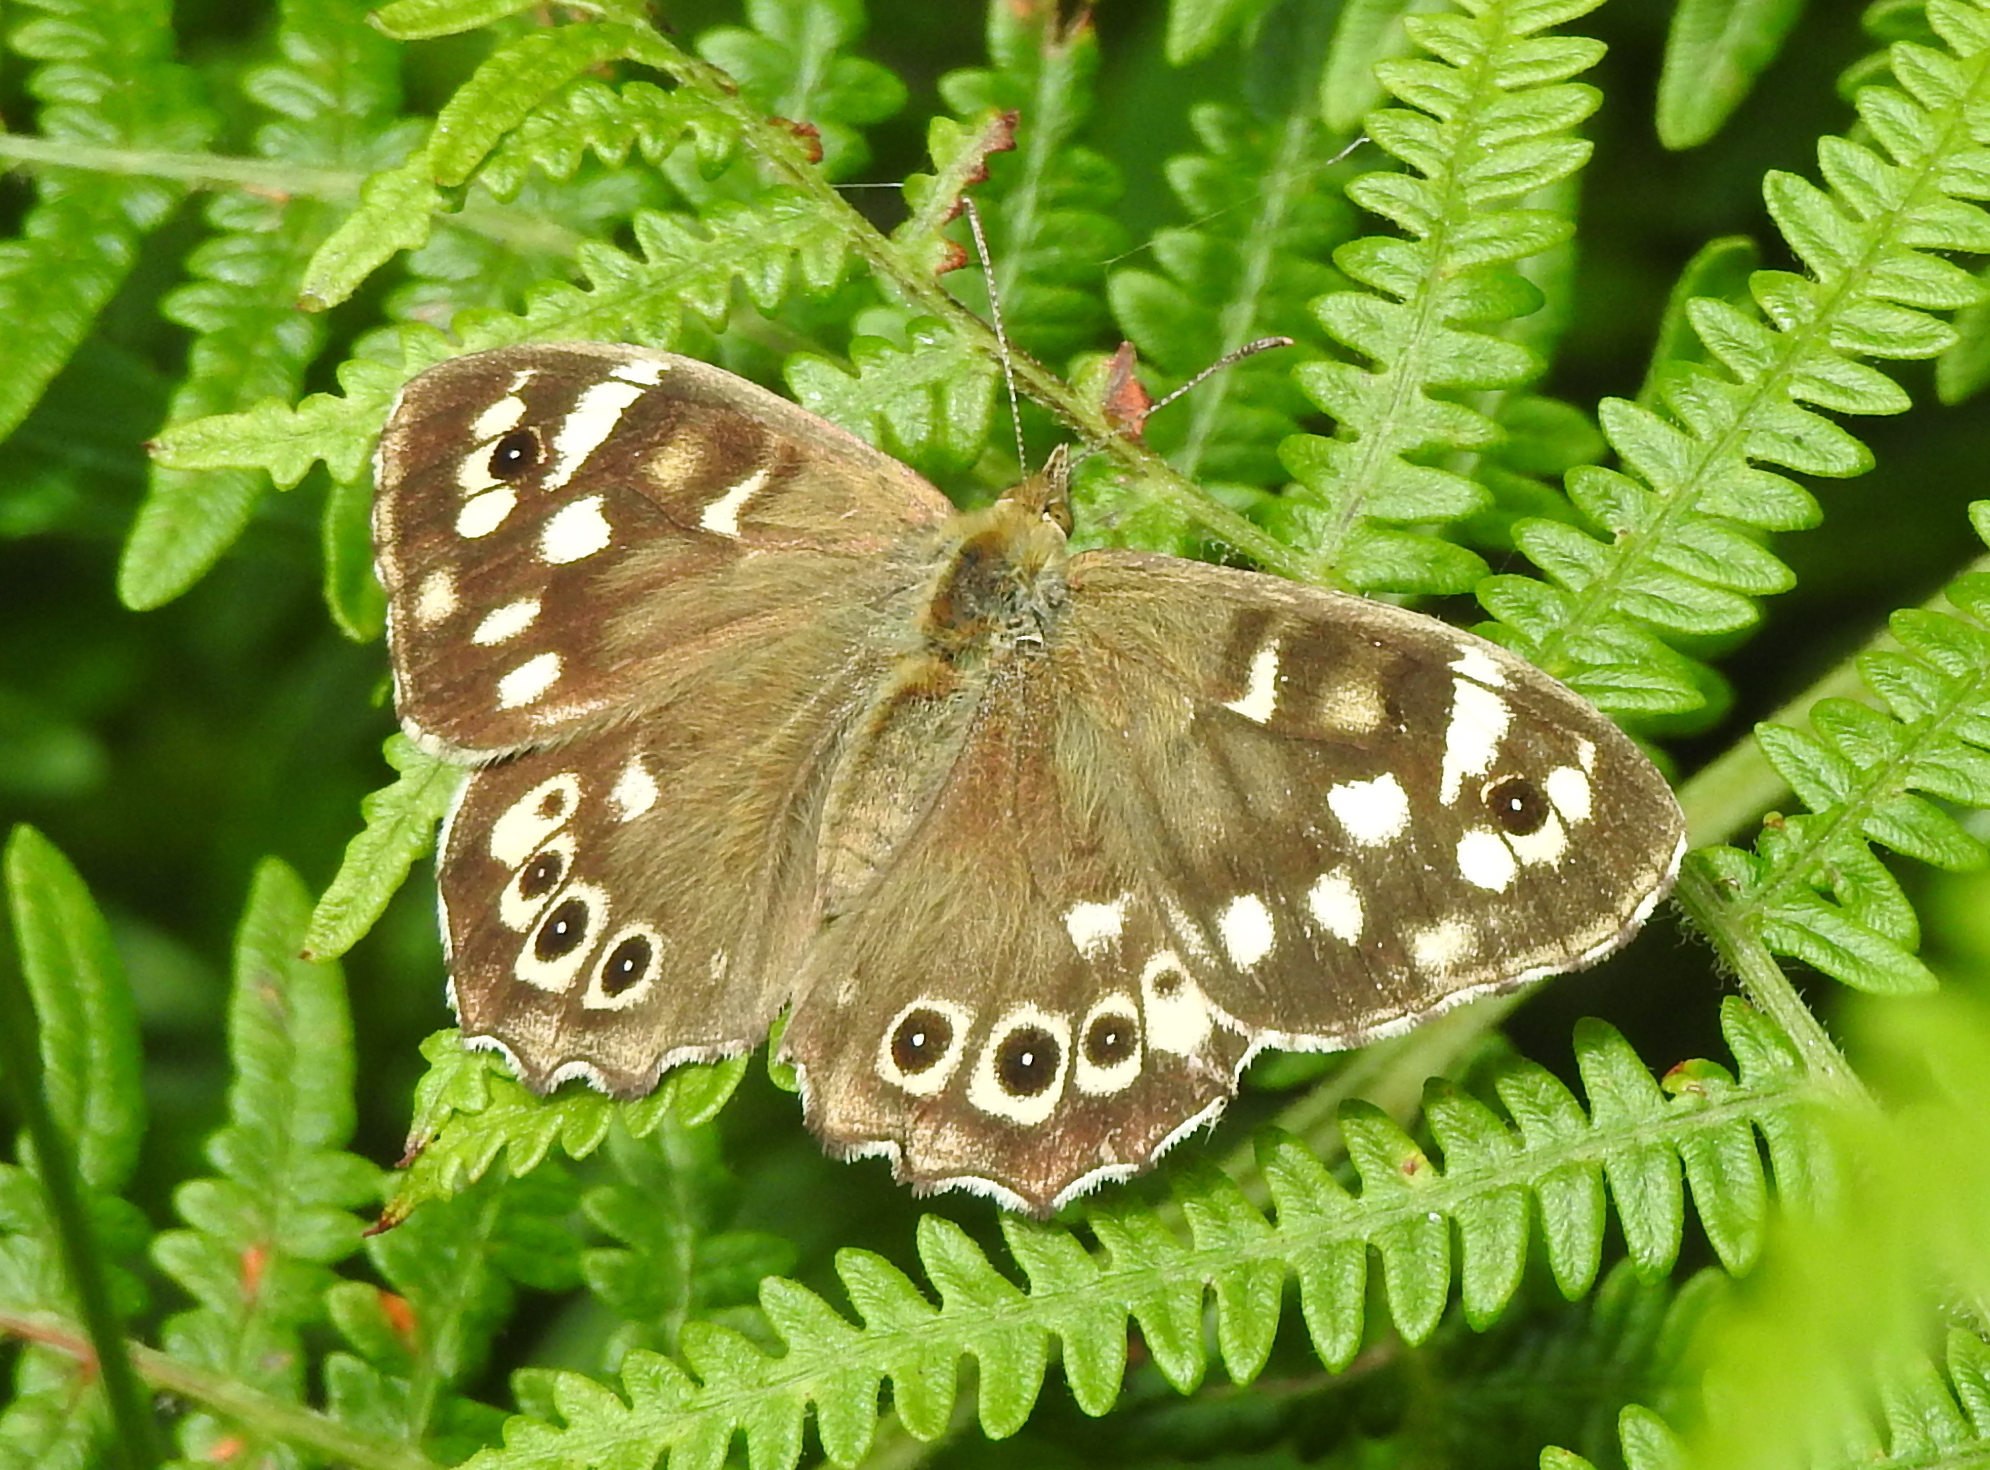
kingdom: Animalia
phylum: Arthropoda
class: Insecta
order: Lepidoptera
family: Nymphalidae
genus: Pararge
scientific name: Pararge aegeria
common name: Speckled wood
